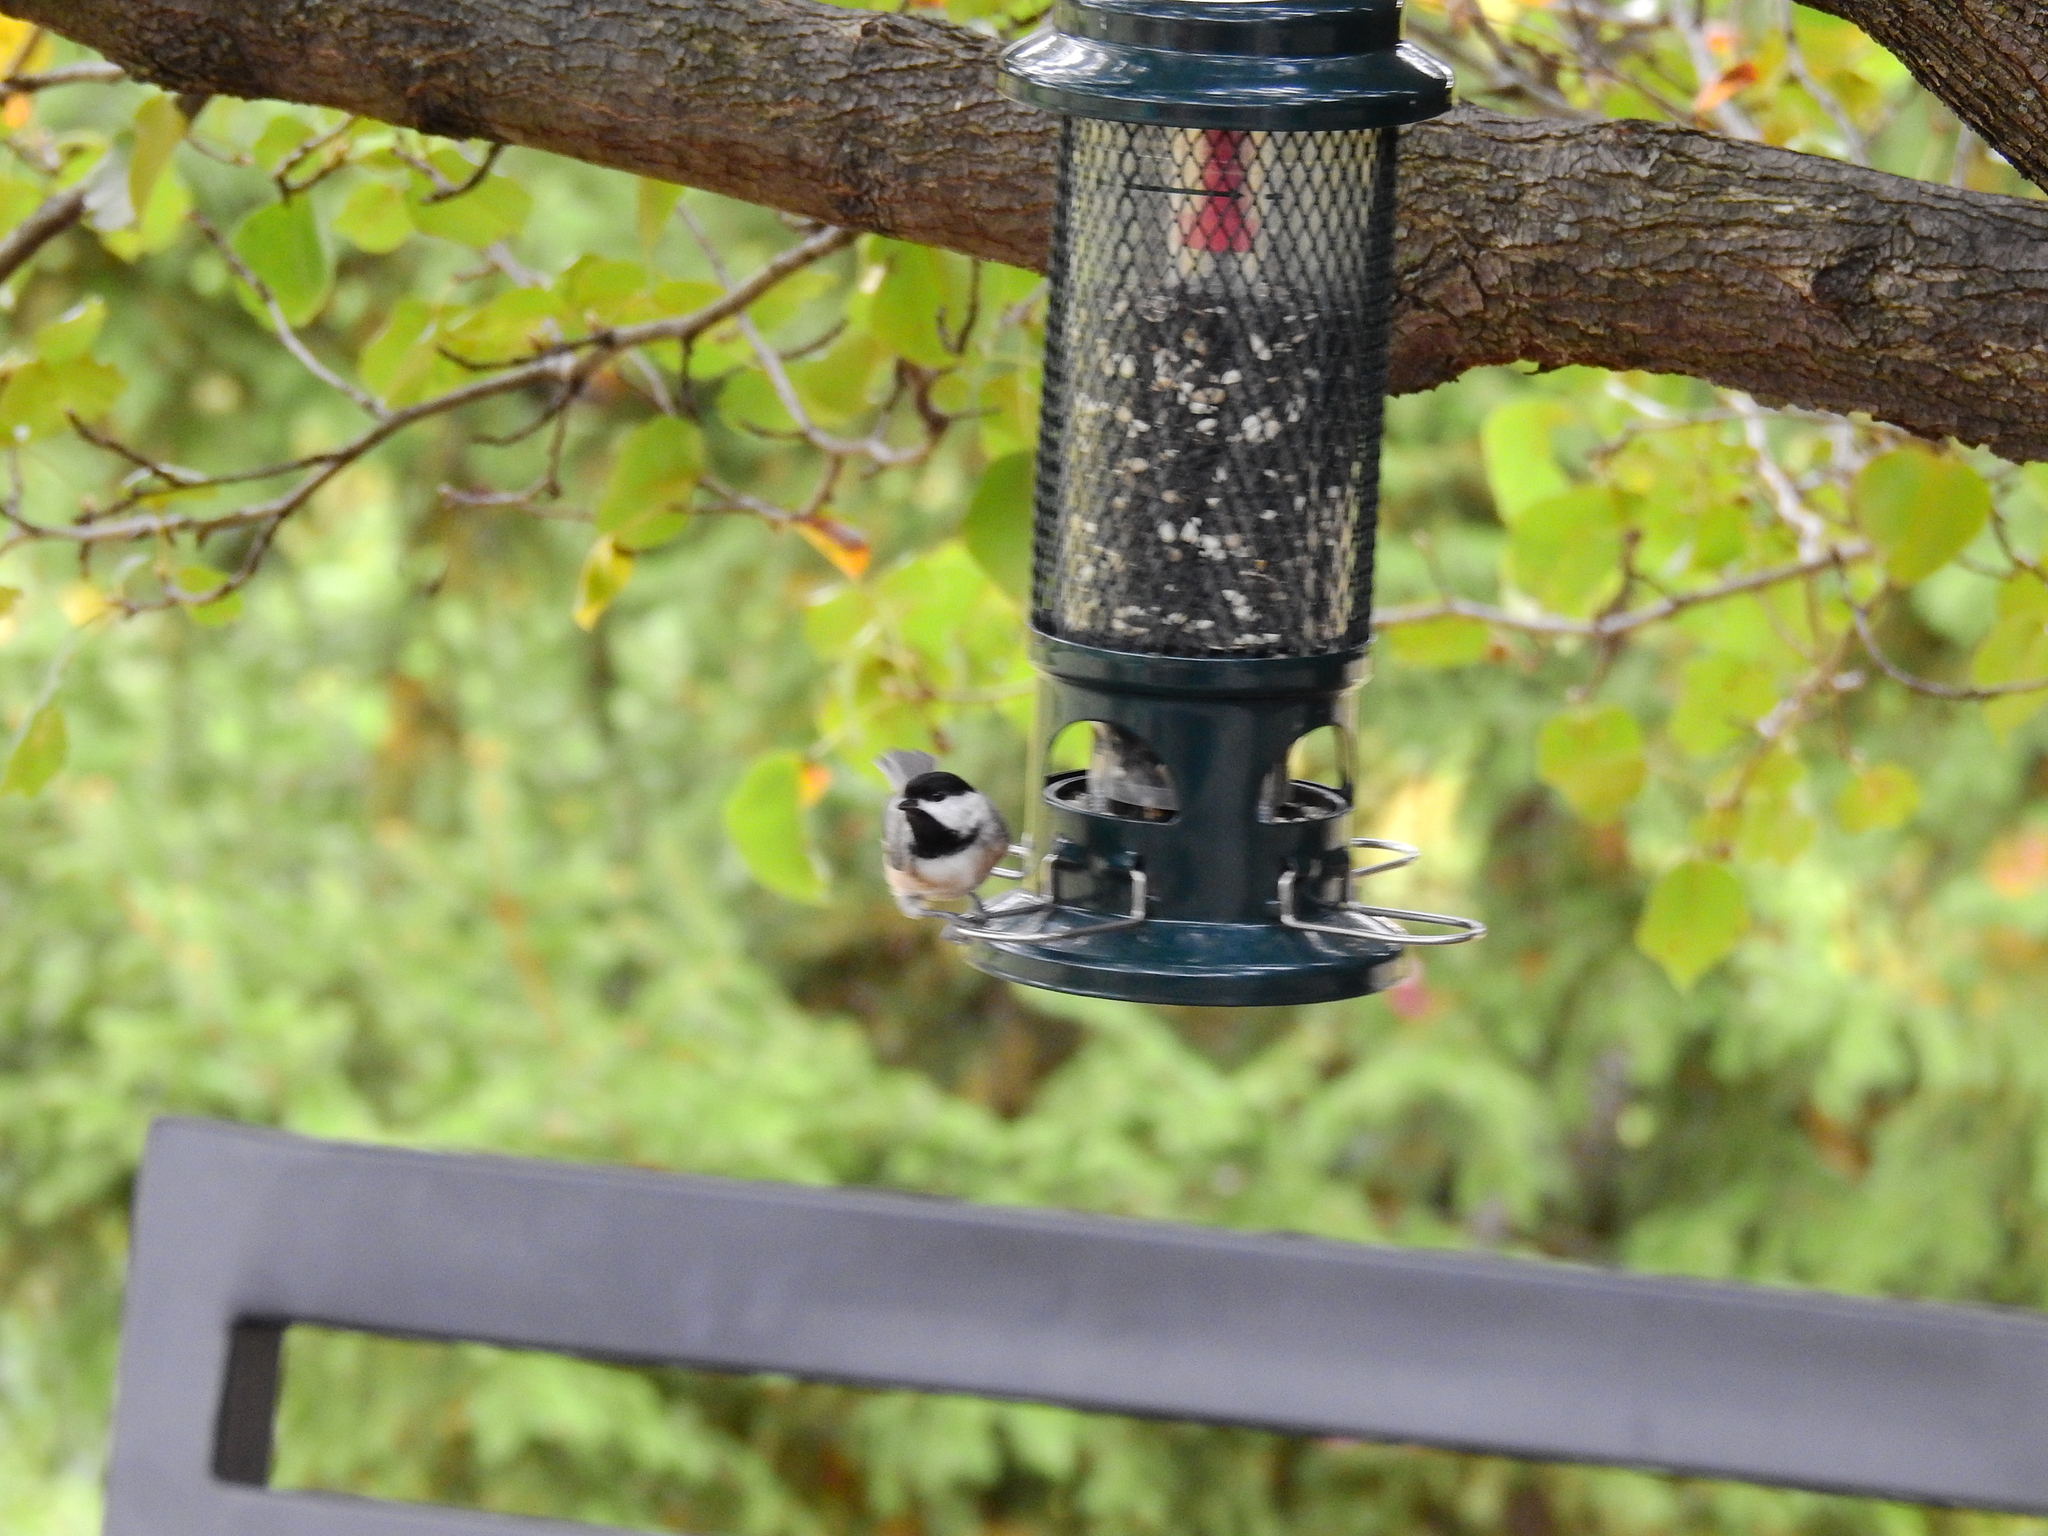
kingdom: Animalia
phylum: Chordata
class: Aves
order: Passeriformes
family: Paridae
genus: Poecile
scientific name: Poecile carolinensis
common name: Carolina chickadee
